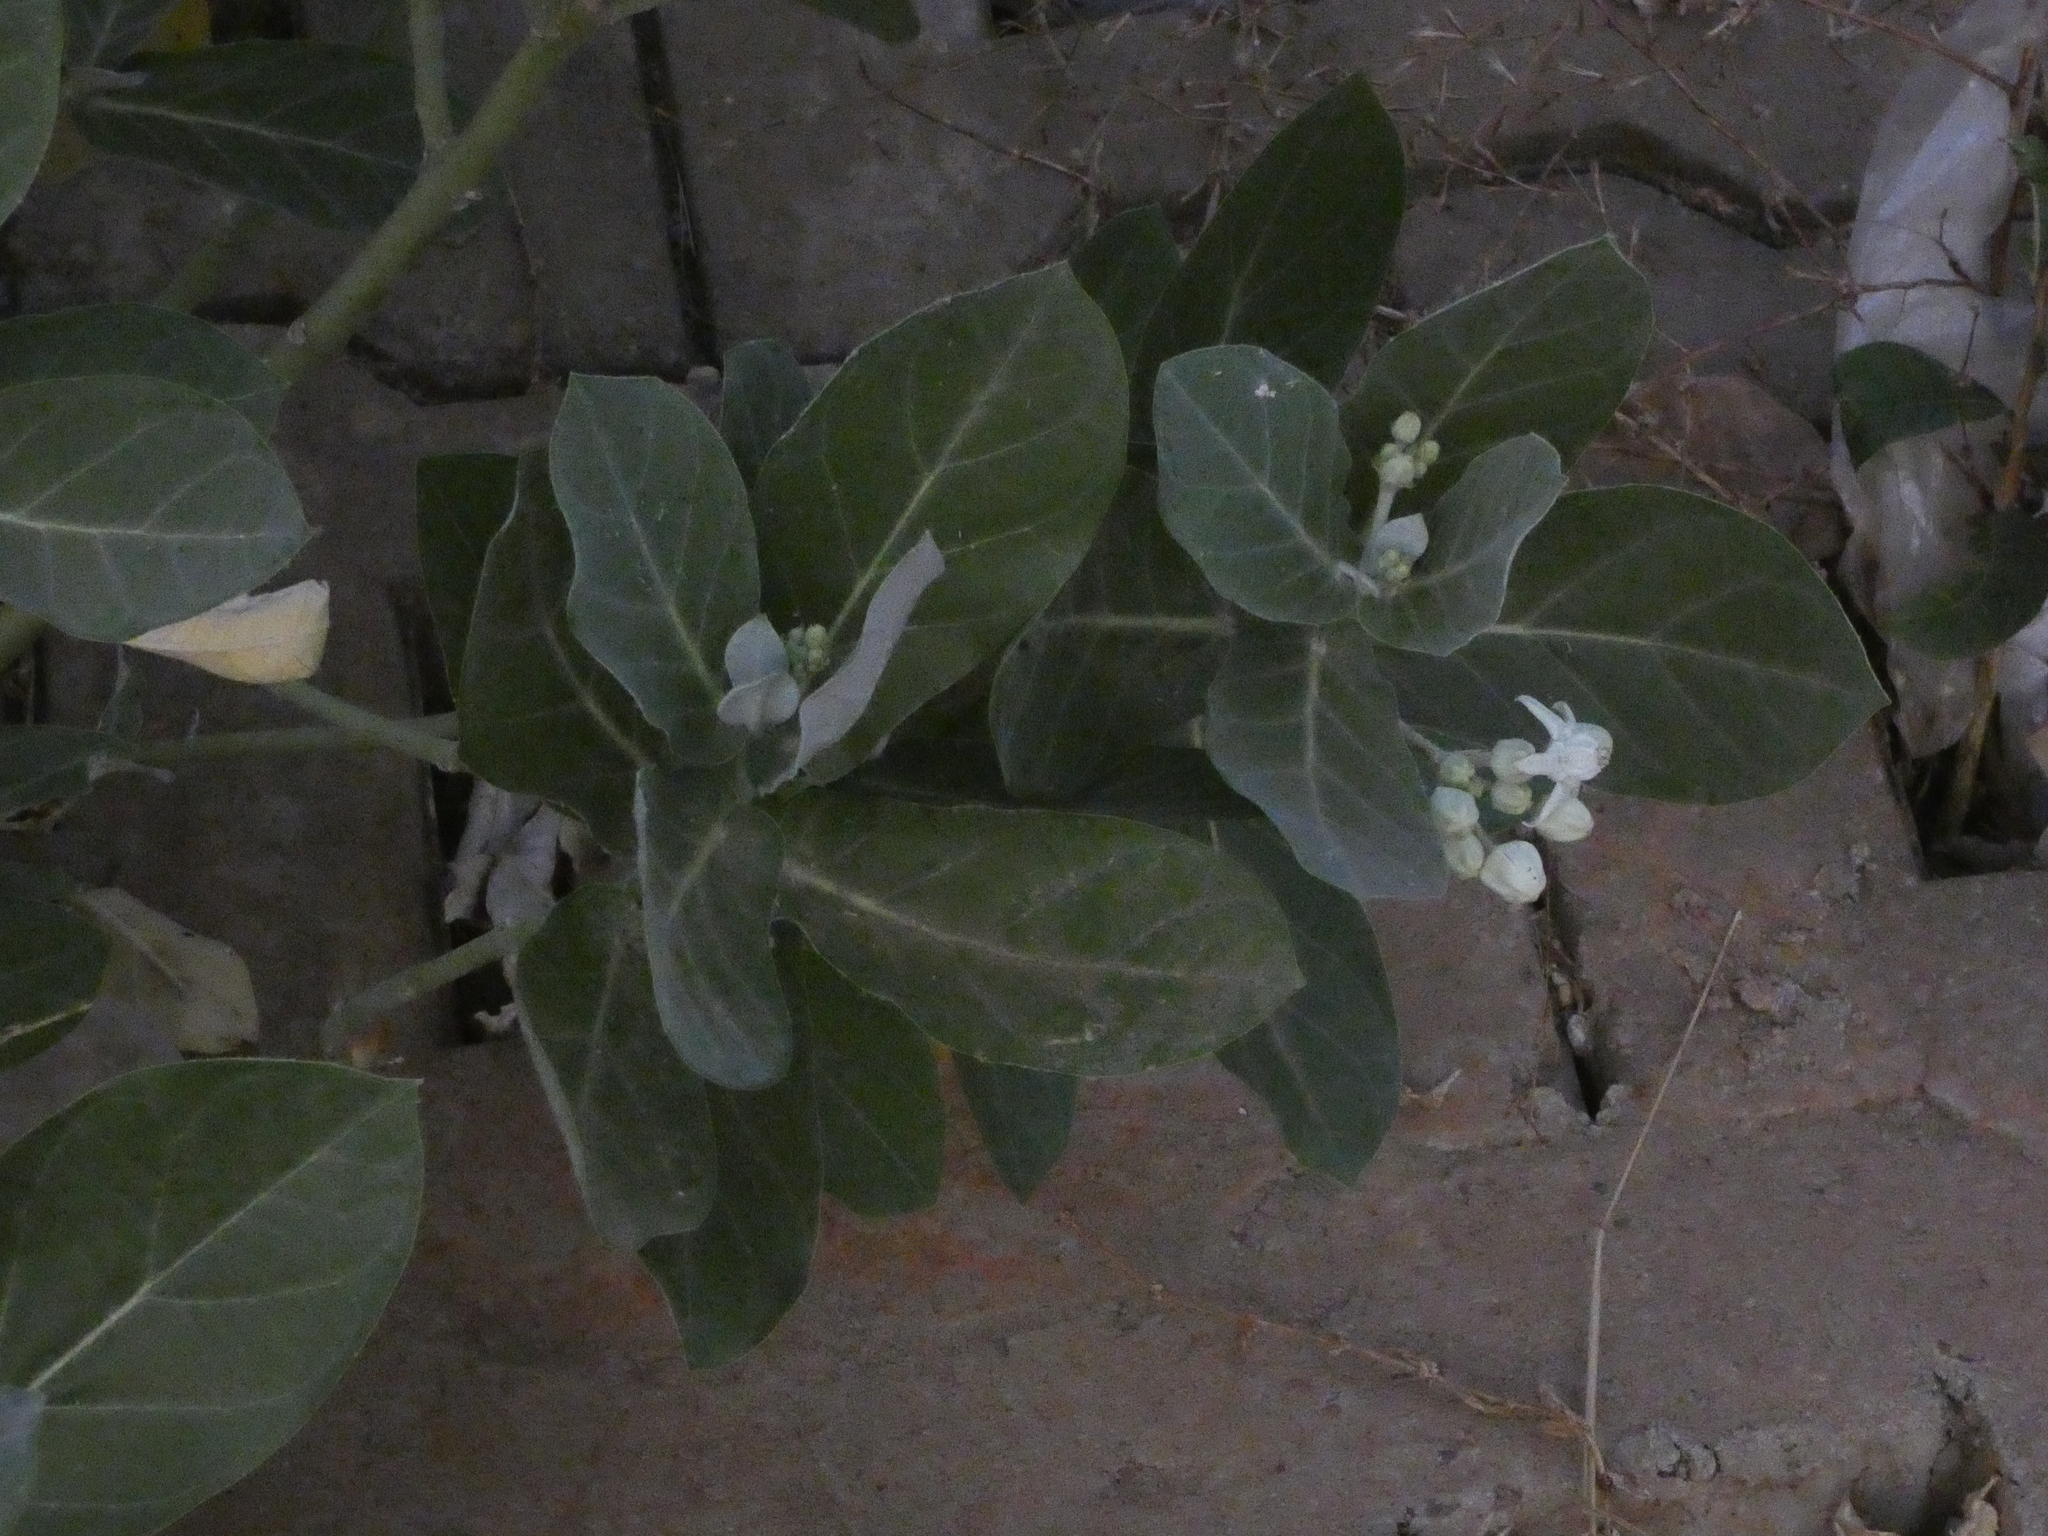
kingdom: Plantae
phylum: Tracheophyta
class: Magnoliopsida
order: Gentianales
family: Apocynaceae
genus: Calotropis
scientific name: Calotropis gigantea
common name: Crown flower
